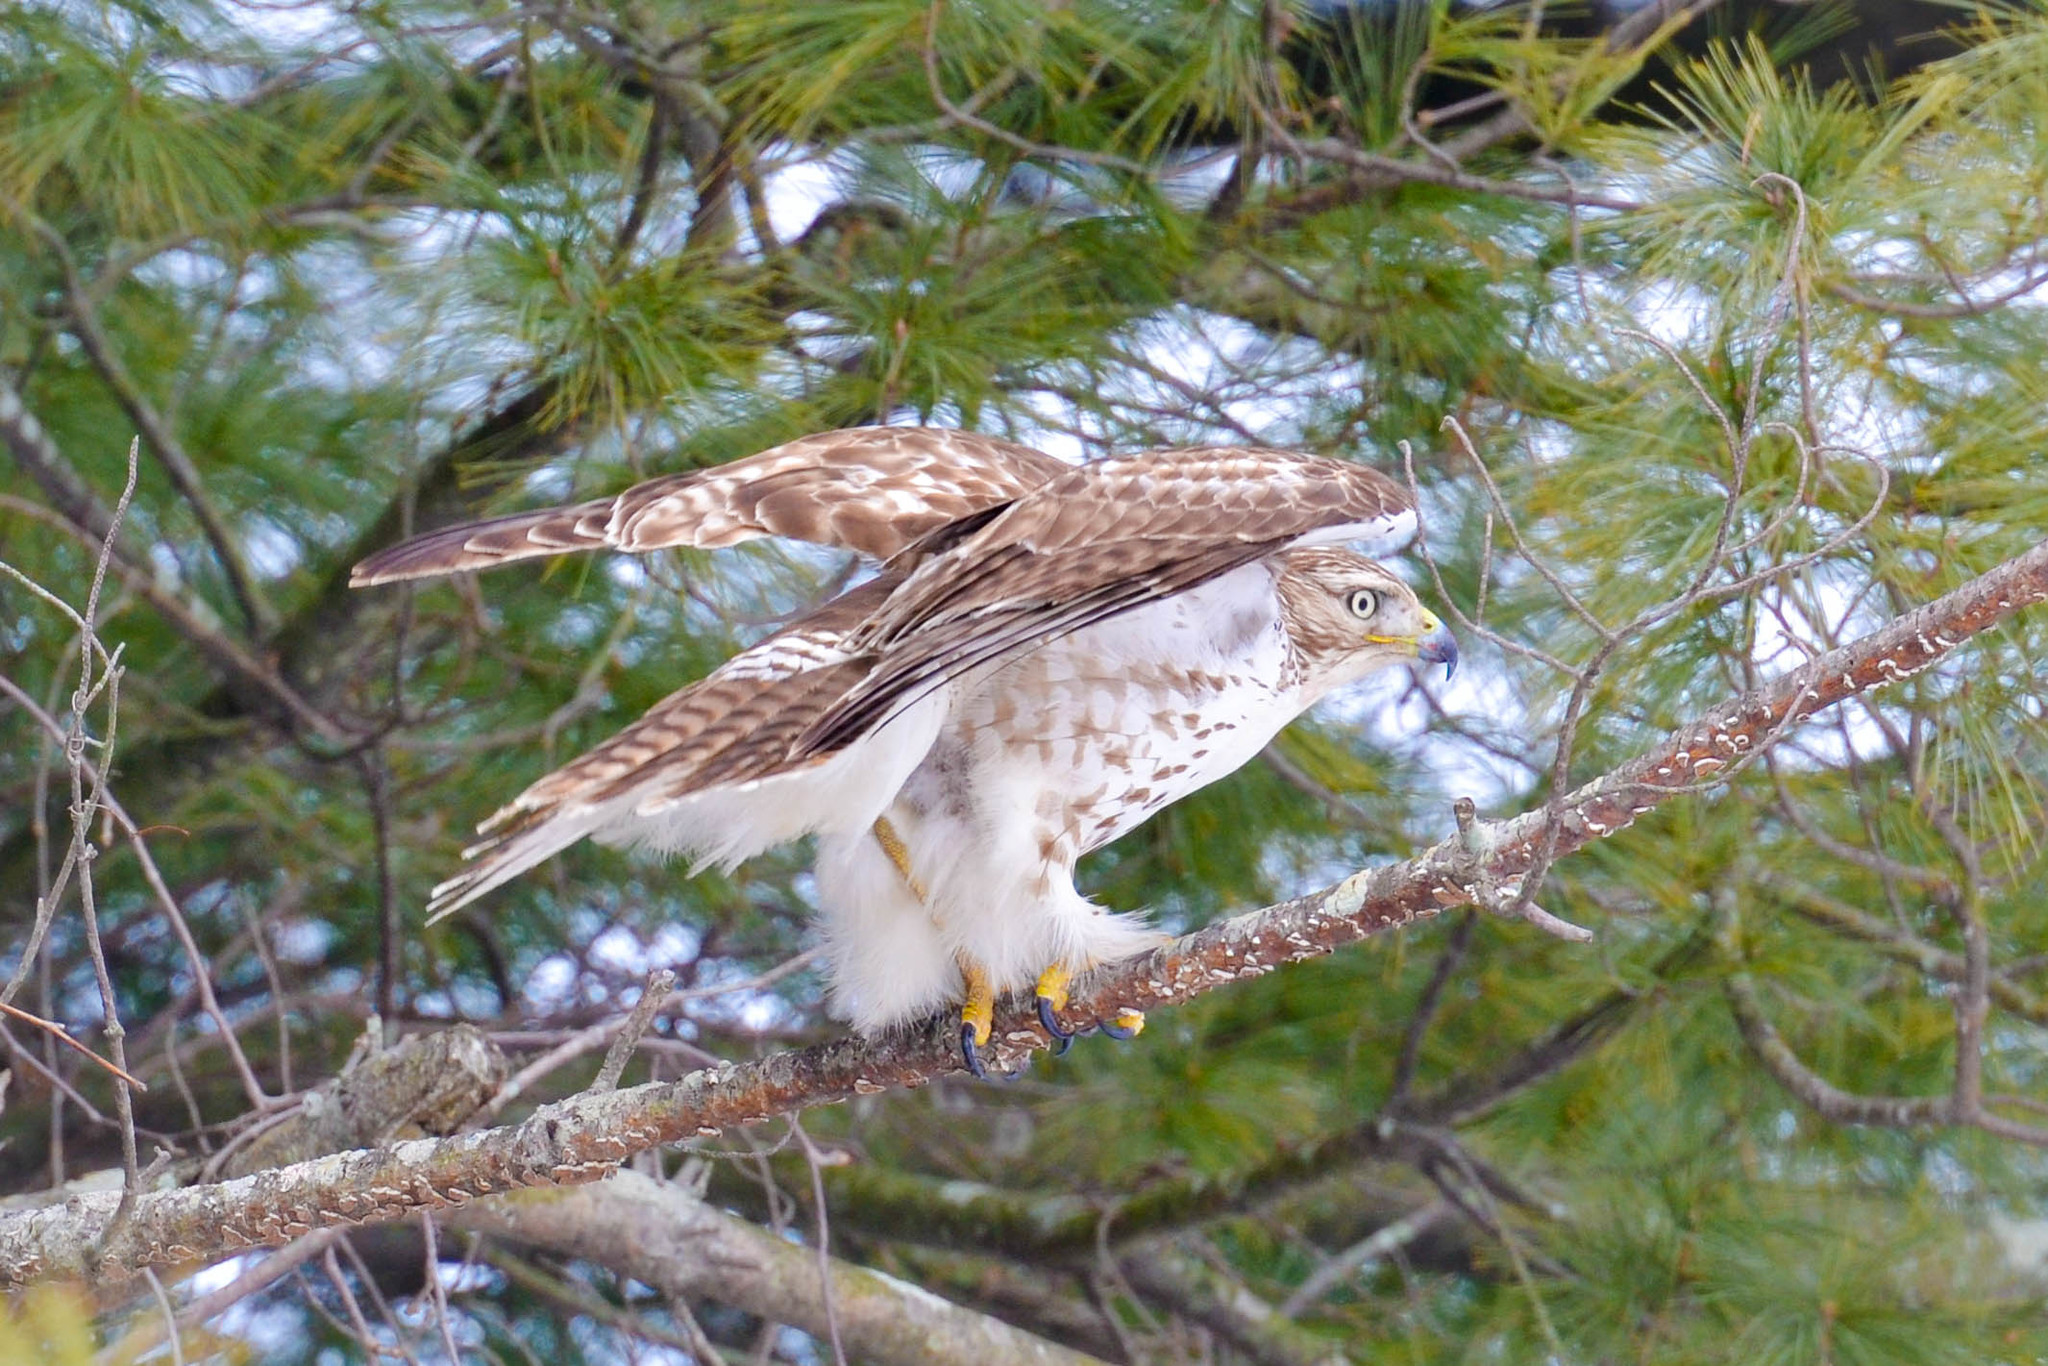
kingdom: Animalia
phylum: Chordata
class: Aves
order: Accipitriformes
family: Accipitridae
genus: Buteo
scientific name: Buteo jamaicensis
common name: Red-tailed hawk
